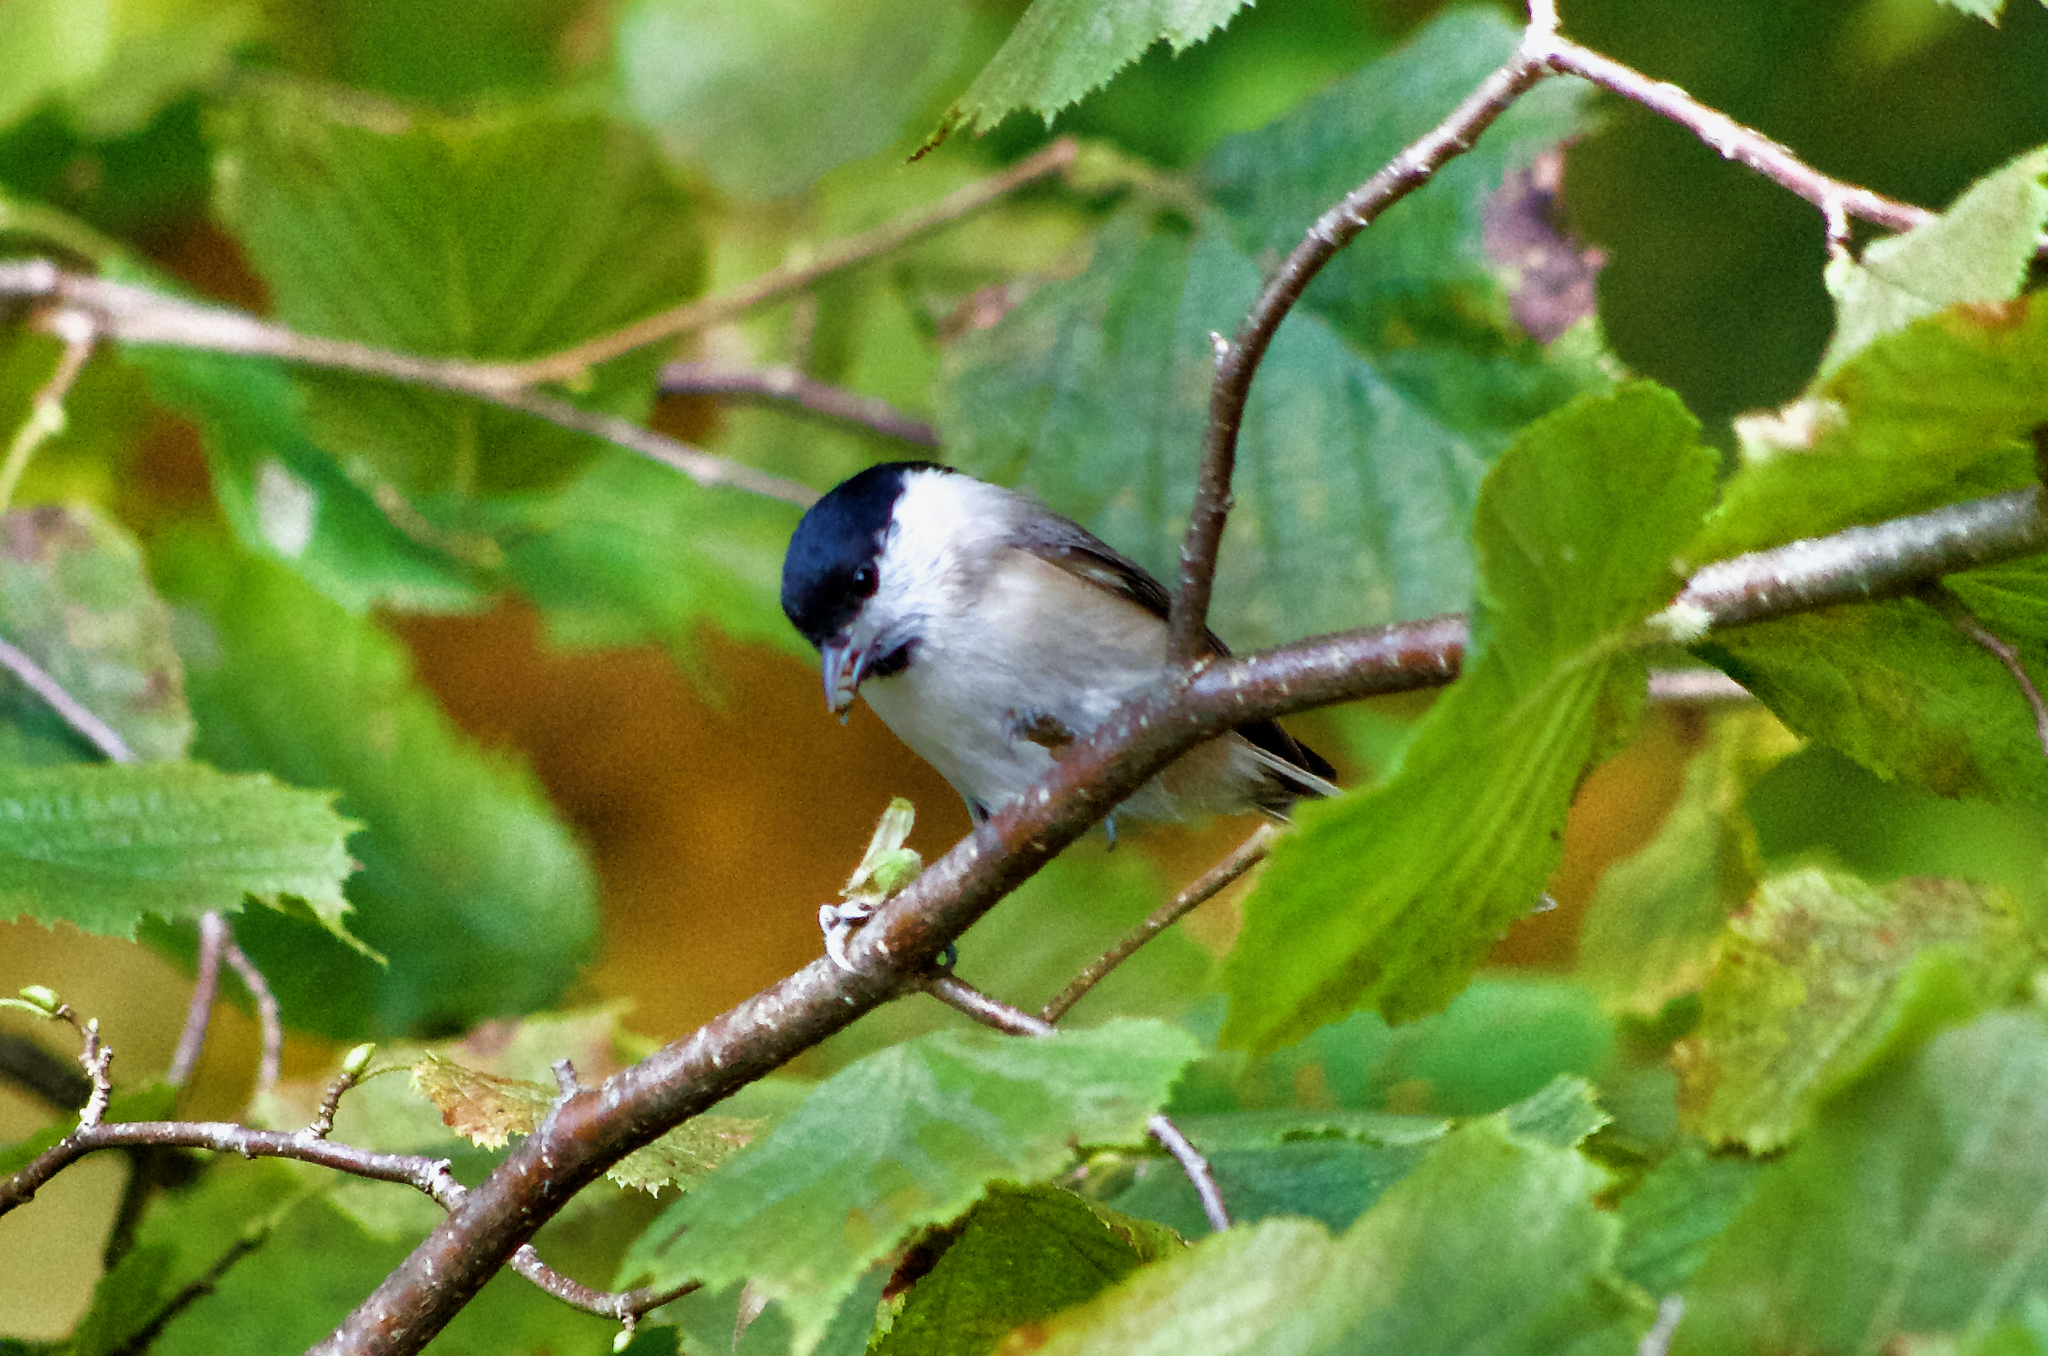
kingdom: Animalia
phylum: Chordata
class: Aves
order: Passeriformes
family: Paridae
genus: Poecile
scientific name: Poecile palustris
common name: Marsh tit
